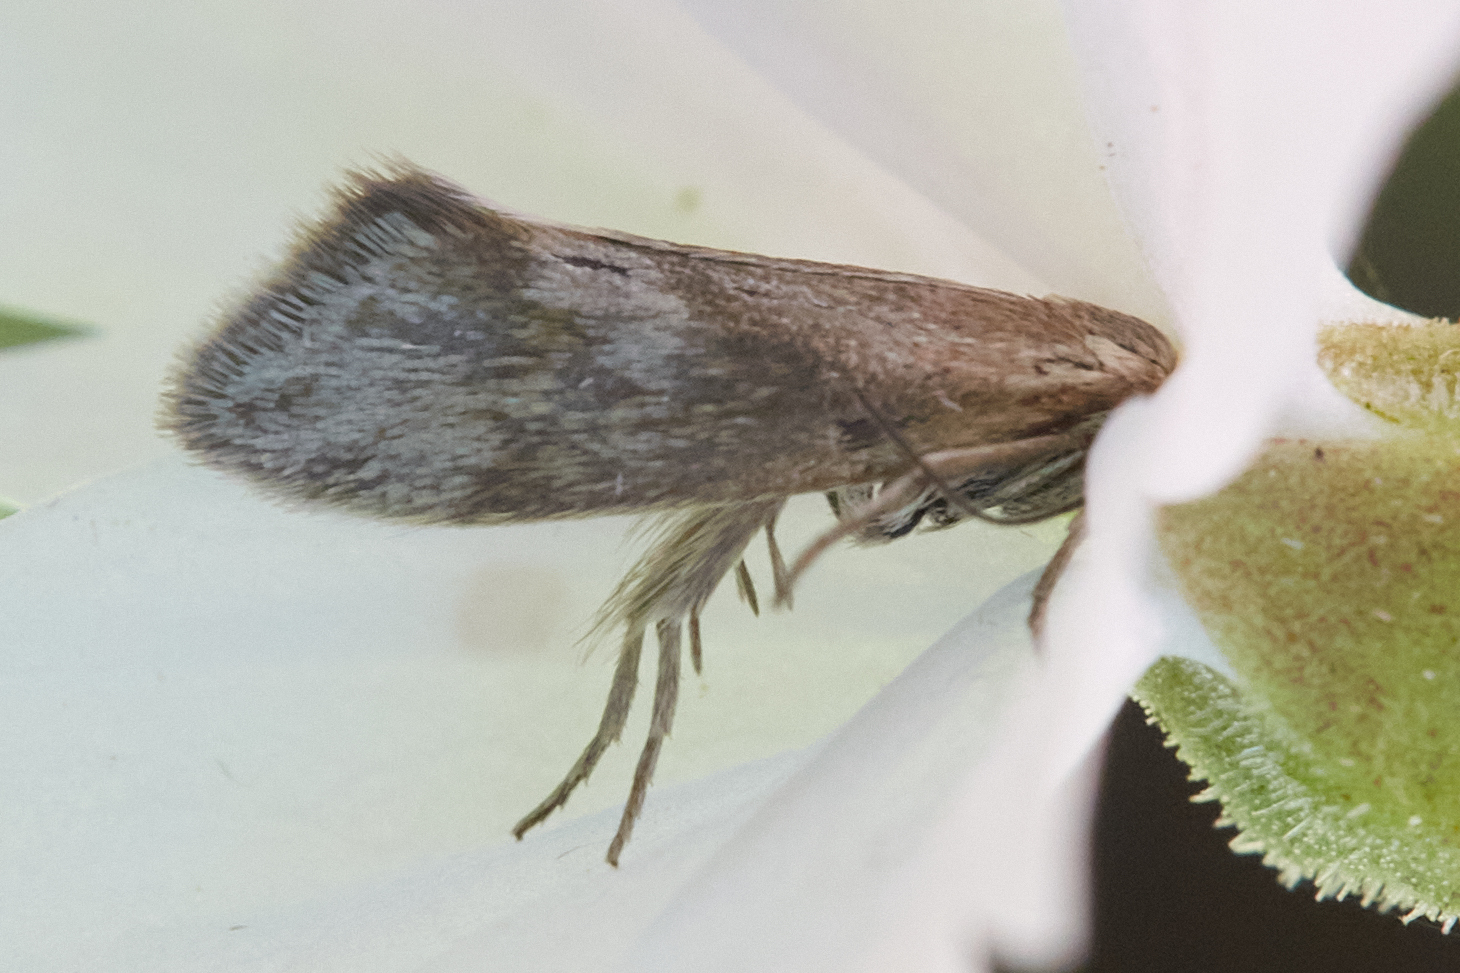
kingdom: Animalia
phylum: Arthropoda
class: Insecta
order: Lepidoptera
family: Prodoxidae
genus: Greya
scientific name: Greya obscura
